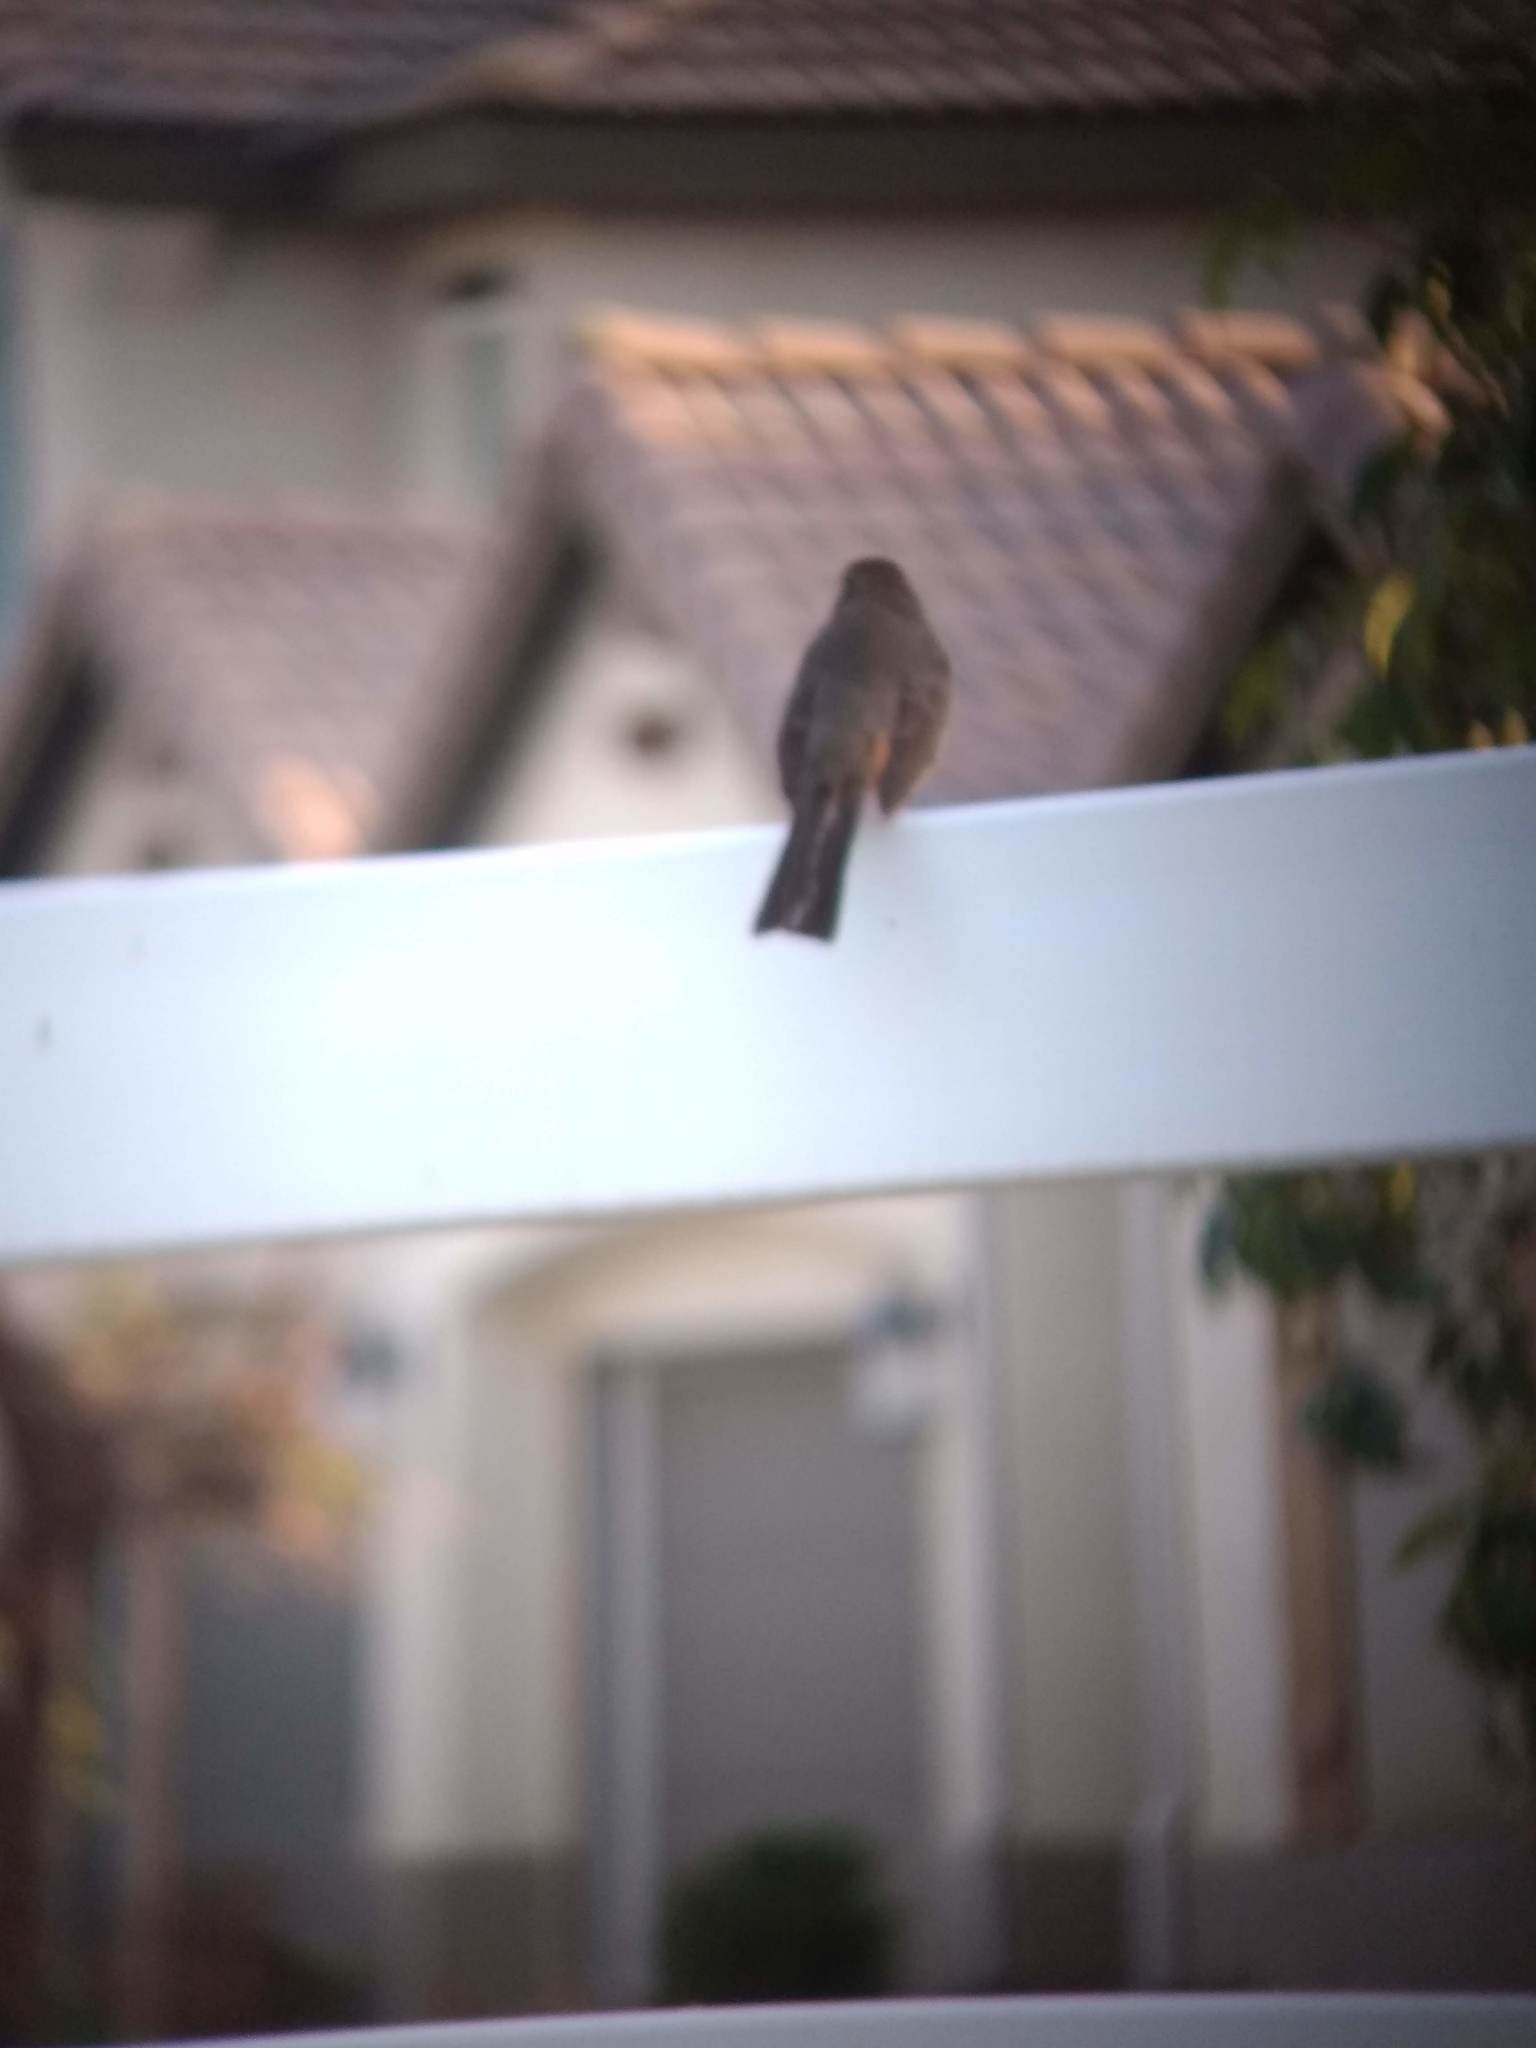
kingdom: Animalia
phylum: Chordata
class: Aves
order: Passeriformes
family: Passerellidae
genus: Melozone
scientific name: Melozone crissalis
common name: California towhee
